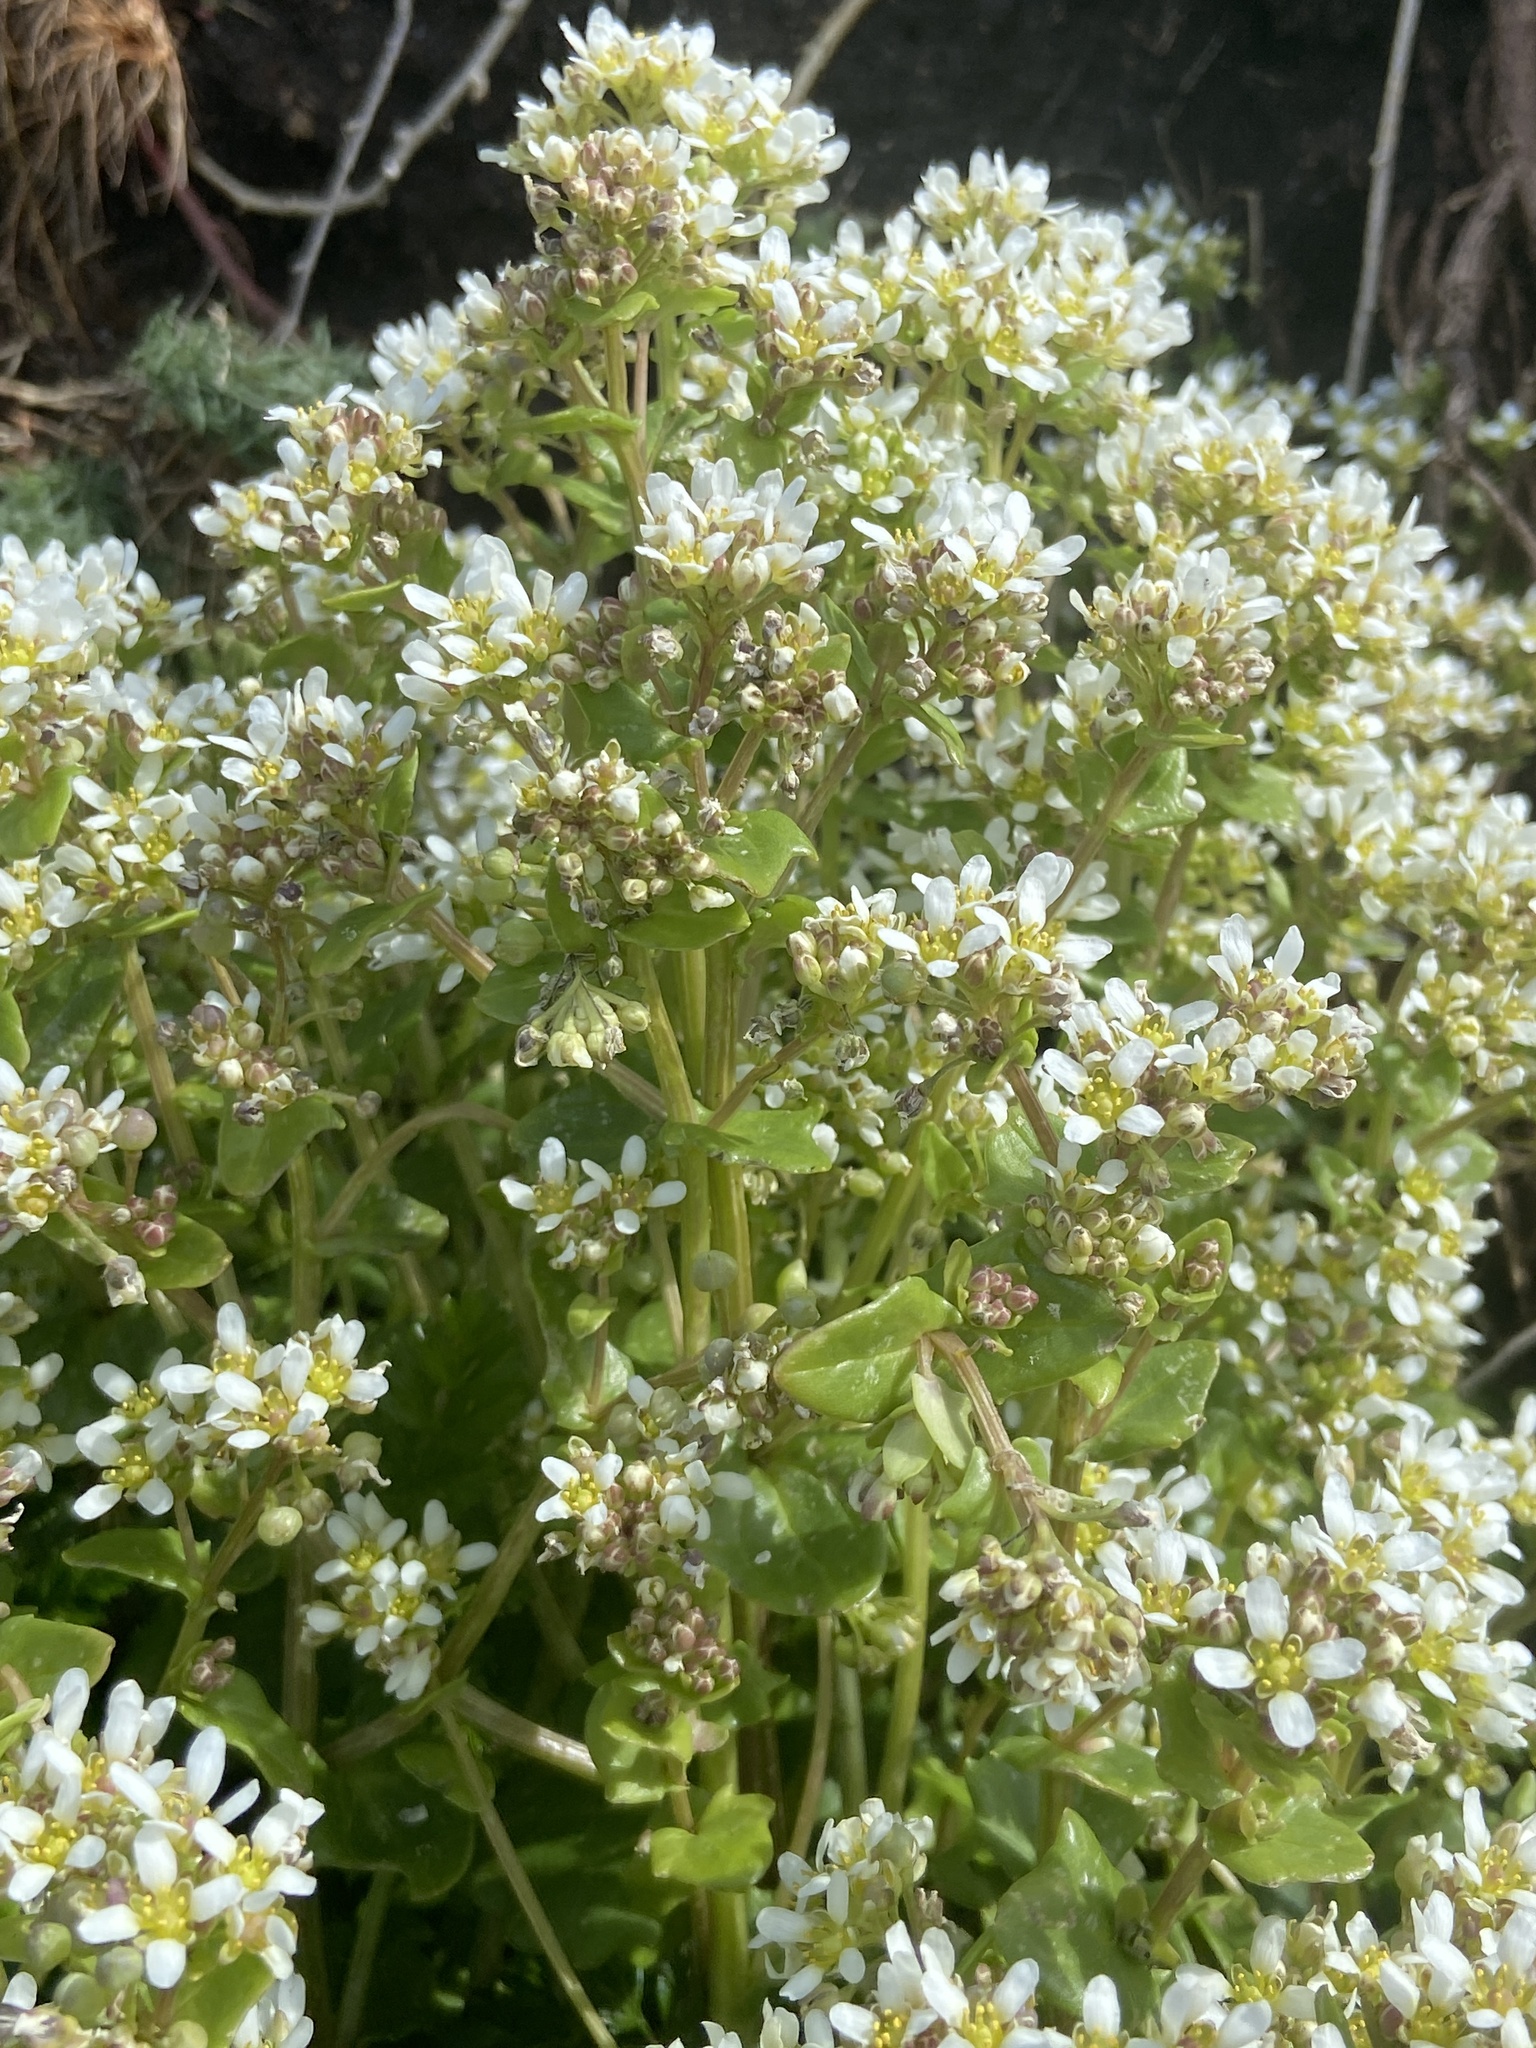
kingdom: Plantae
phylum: Tracheophyta
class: Magnoliopsida
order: Brassicales
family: Brassicaceae
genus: Cochlearia
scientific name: Cochlearia officinalis
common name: Scurvy-grass
